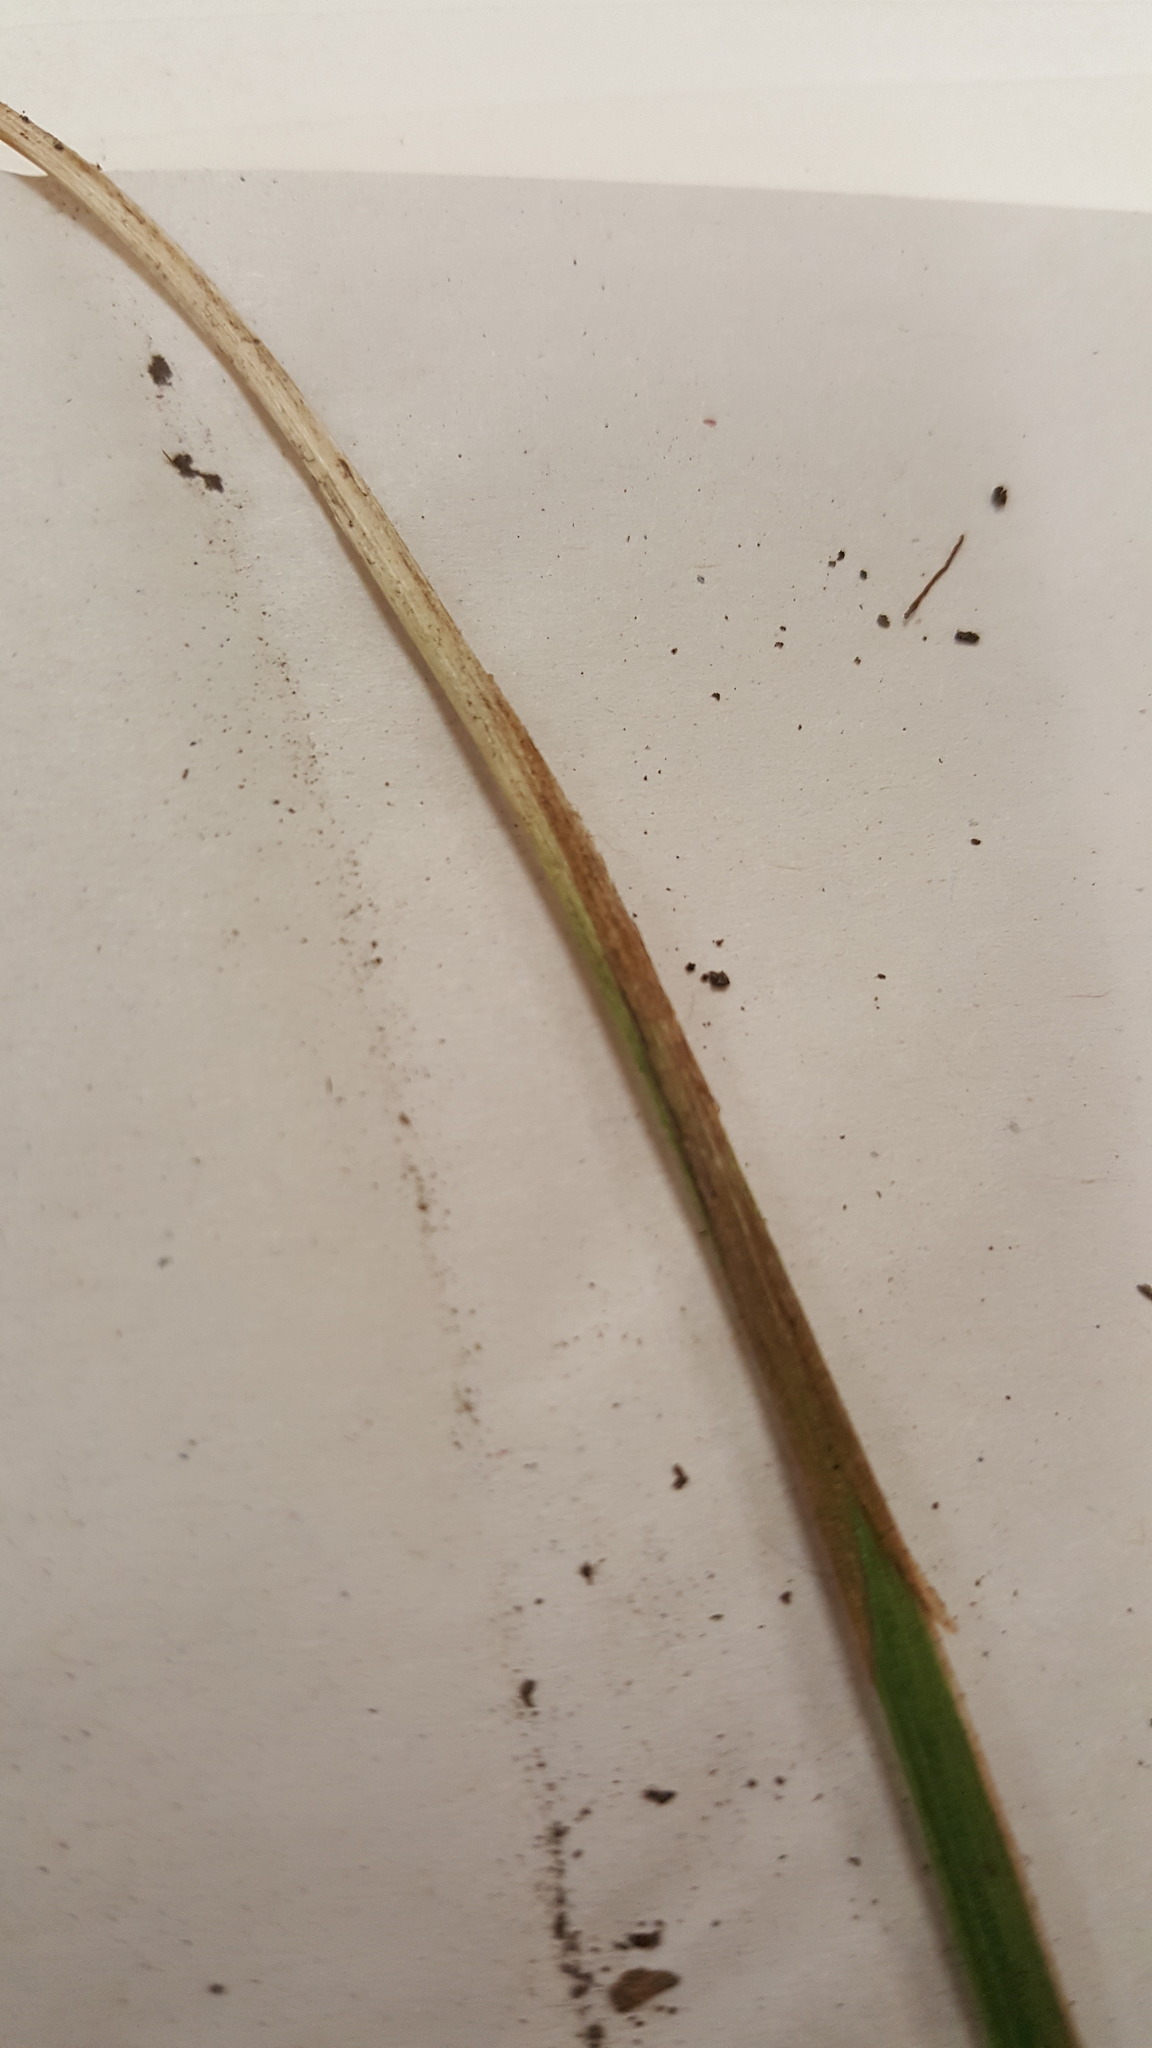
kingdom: Plantae
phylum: Tracheophyta
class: Liliopsida
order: Poales
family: Cyperaceae
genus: Carex
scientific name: Carex gracillima
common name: Graceful sedge
